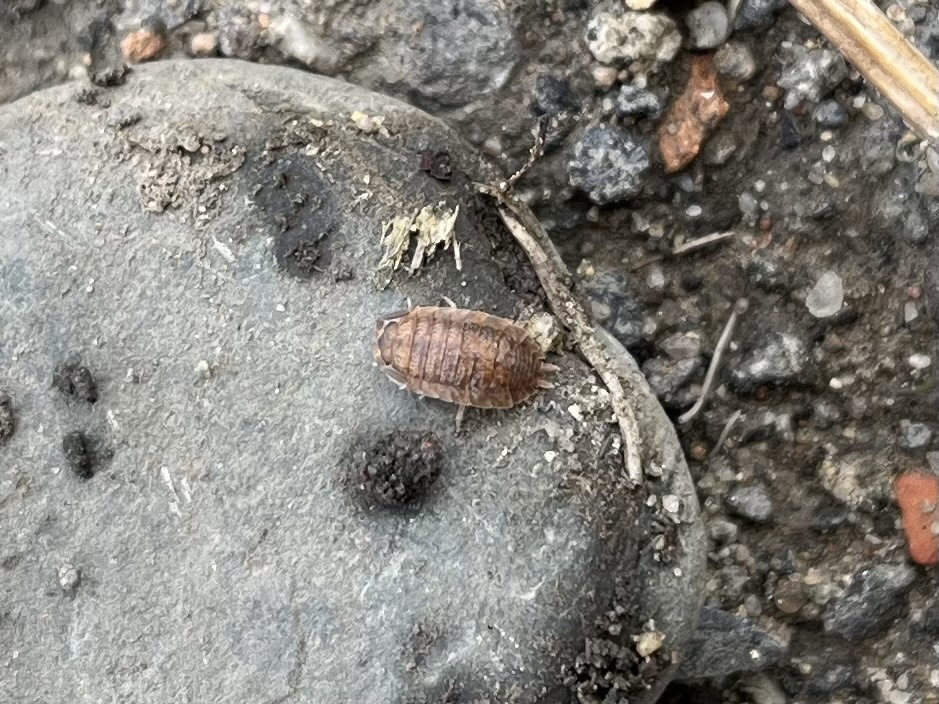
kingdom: Animalia
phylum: Arthropoda
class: Malacostraca
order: Isopoda
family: Porcellionidae
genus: Porcellio
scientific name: Porcellio scaber
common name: Common rough woodlouse
